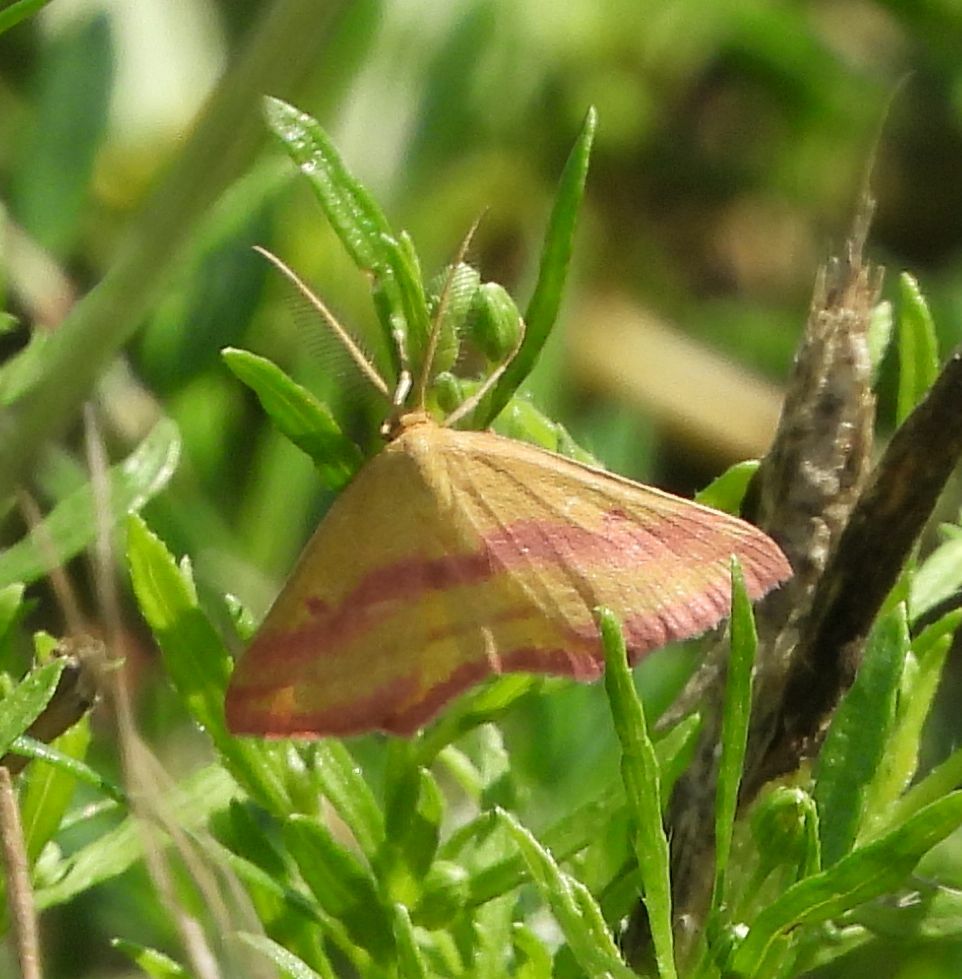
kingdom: Animalia
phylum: Arthropoda
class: Insecta
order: Lepidoptera
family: Geometridae
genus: Haematopis
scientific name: Haematopis grataria
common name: Chickweed geometer
